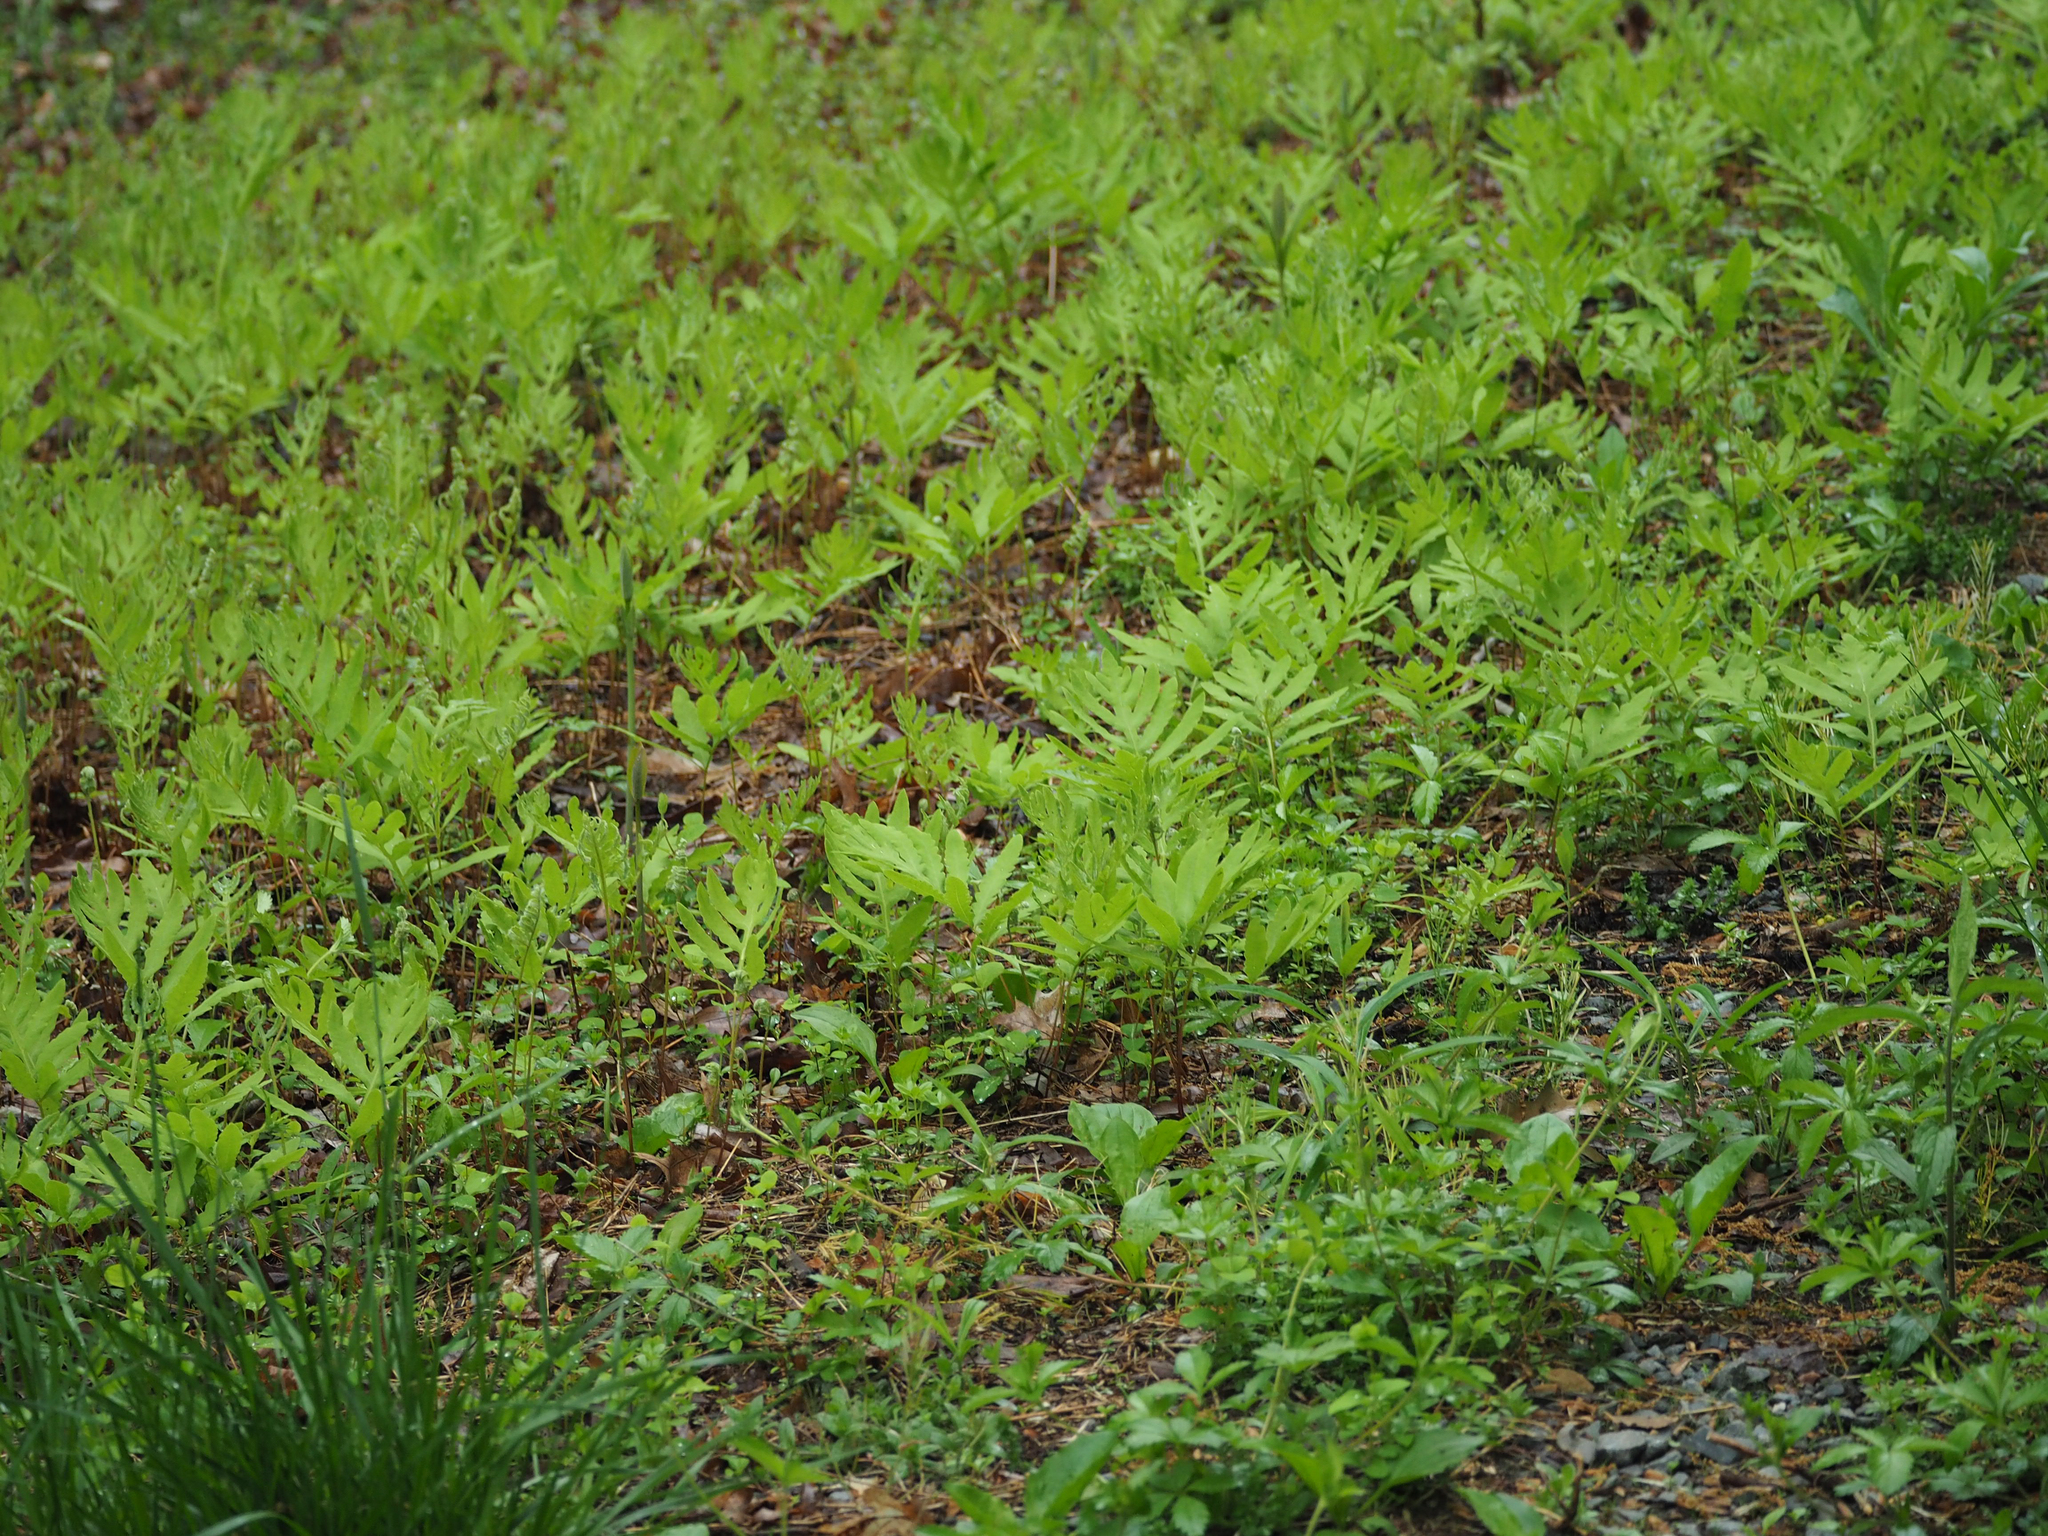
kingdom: Plantae
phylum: Tracheophyta
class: Polypodiopsida
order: Polypodiales
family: Onocleaceae
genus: Onoclea
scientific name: Onoclea sensibilis
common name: Sensitive fern
